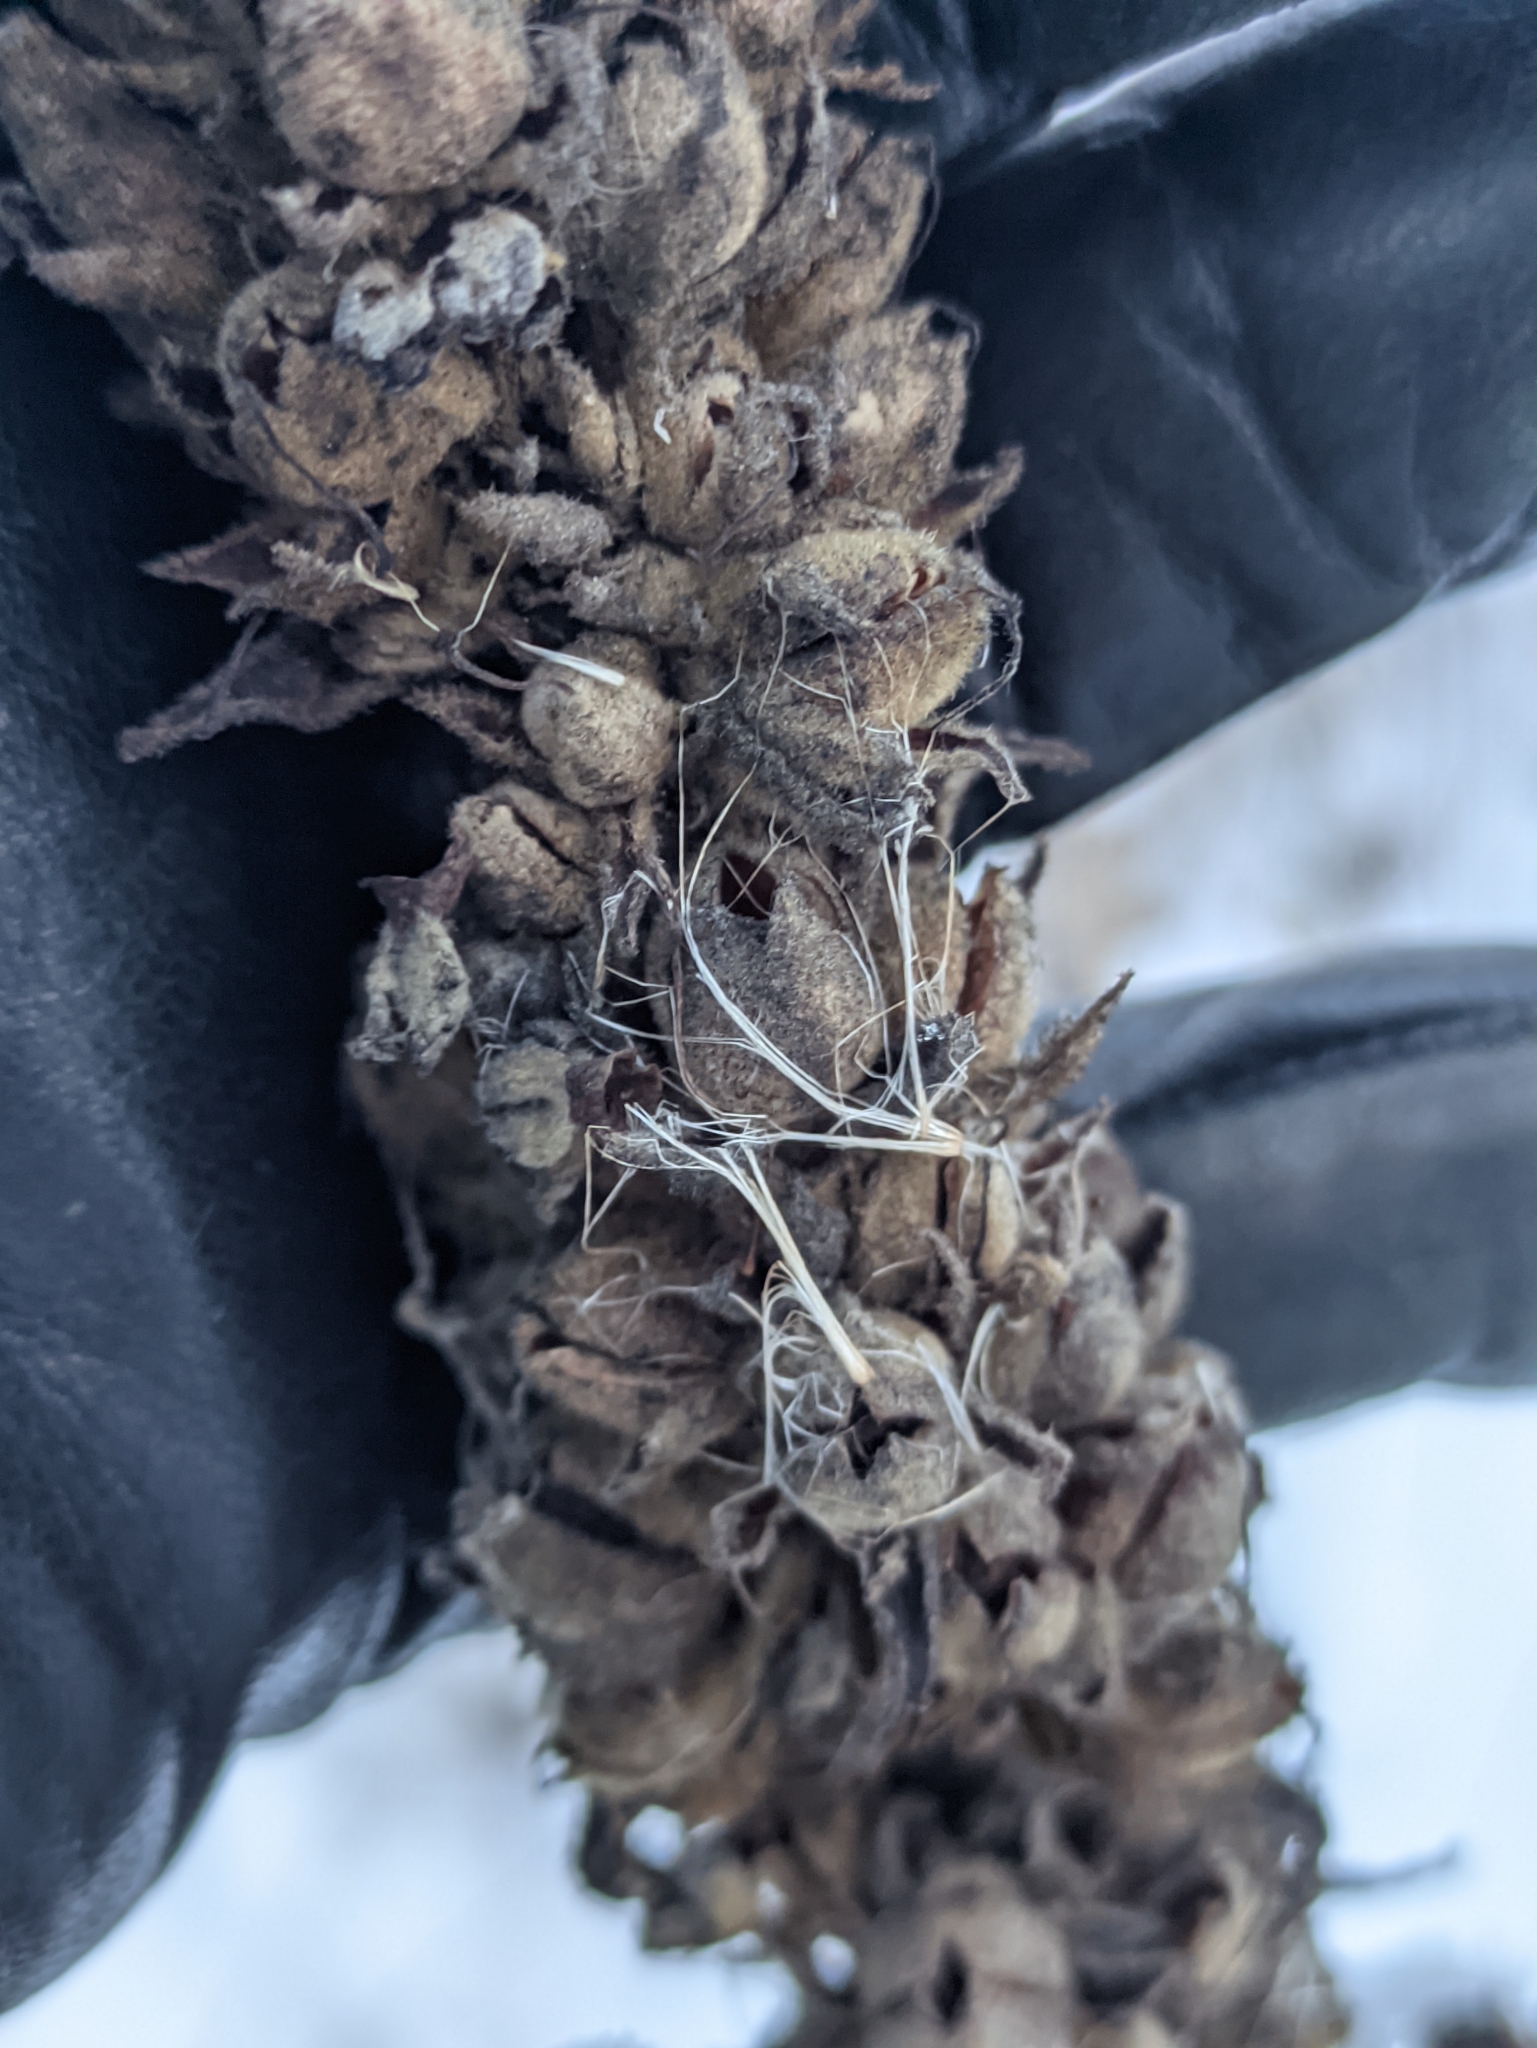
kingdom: Plantae
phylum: Tracheophyta
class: Magnoliopsida
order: Lamiales
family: Scrophulariaceae
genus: Verbascum
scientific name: Verbascum thapsus
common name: Common mullein
